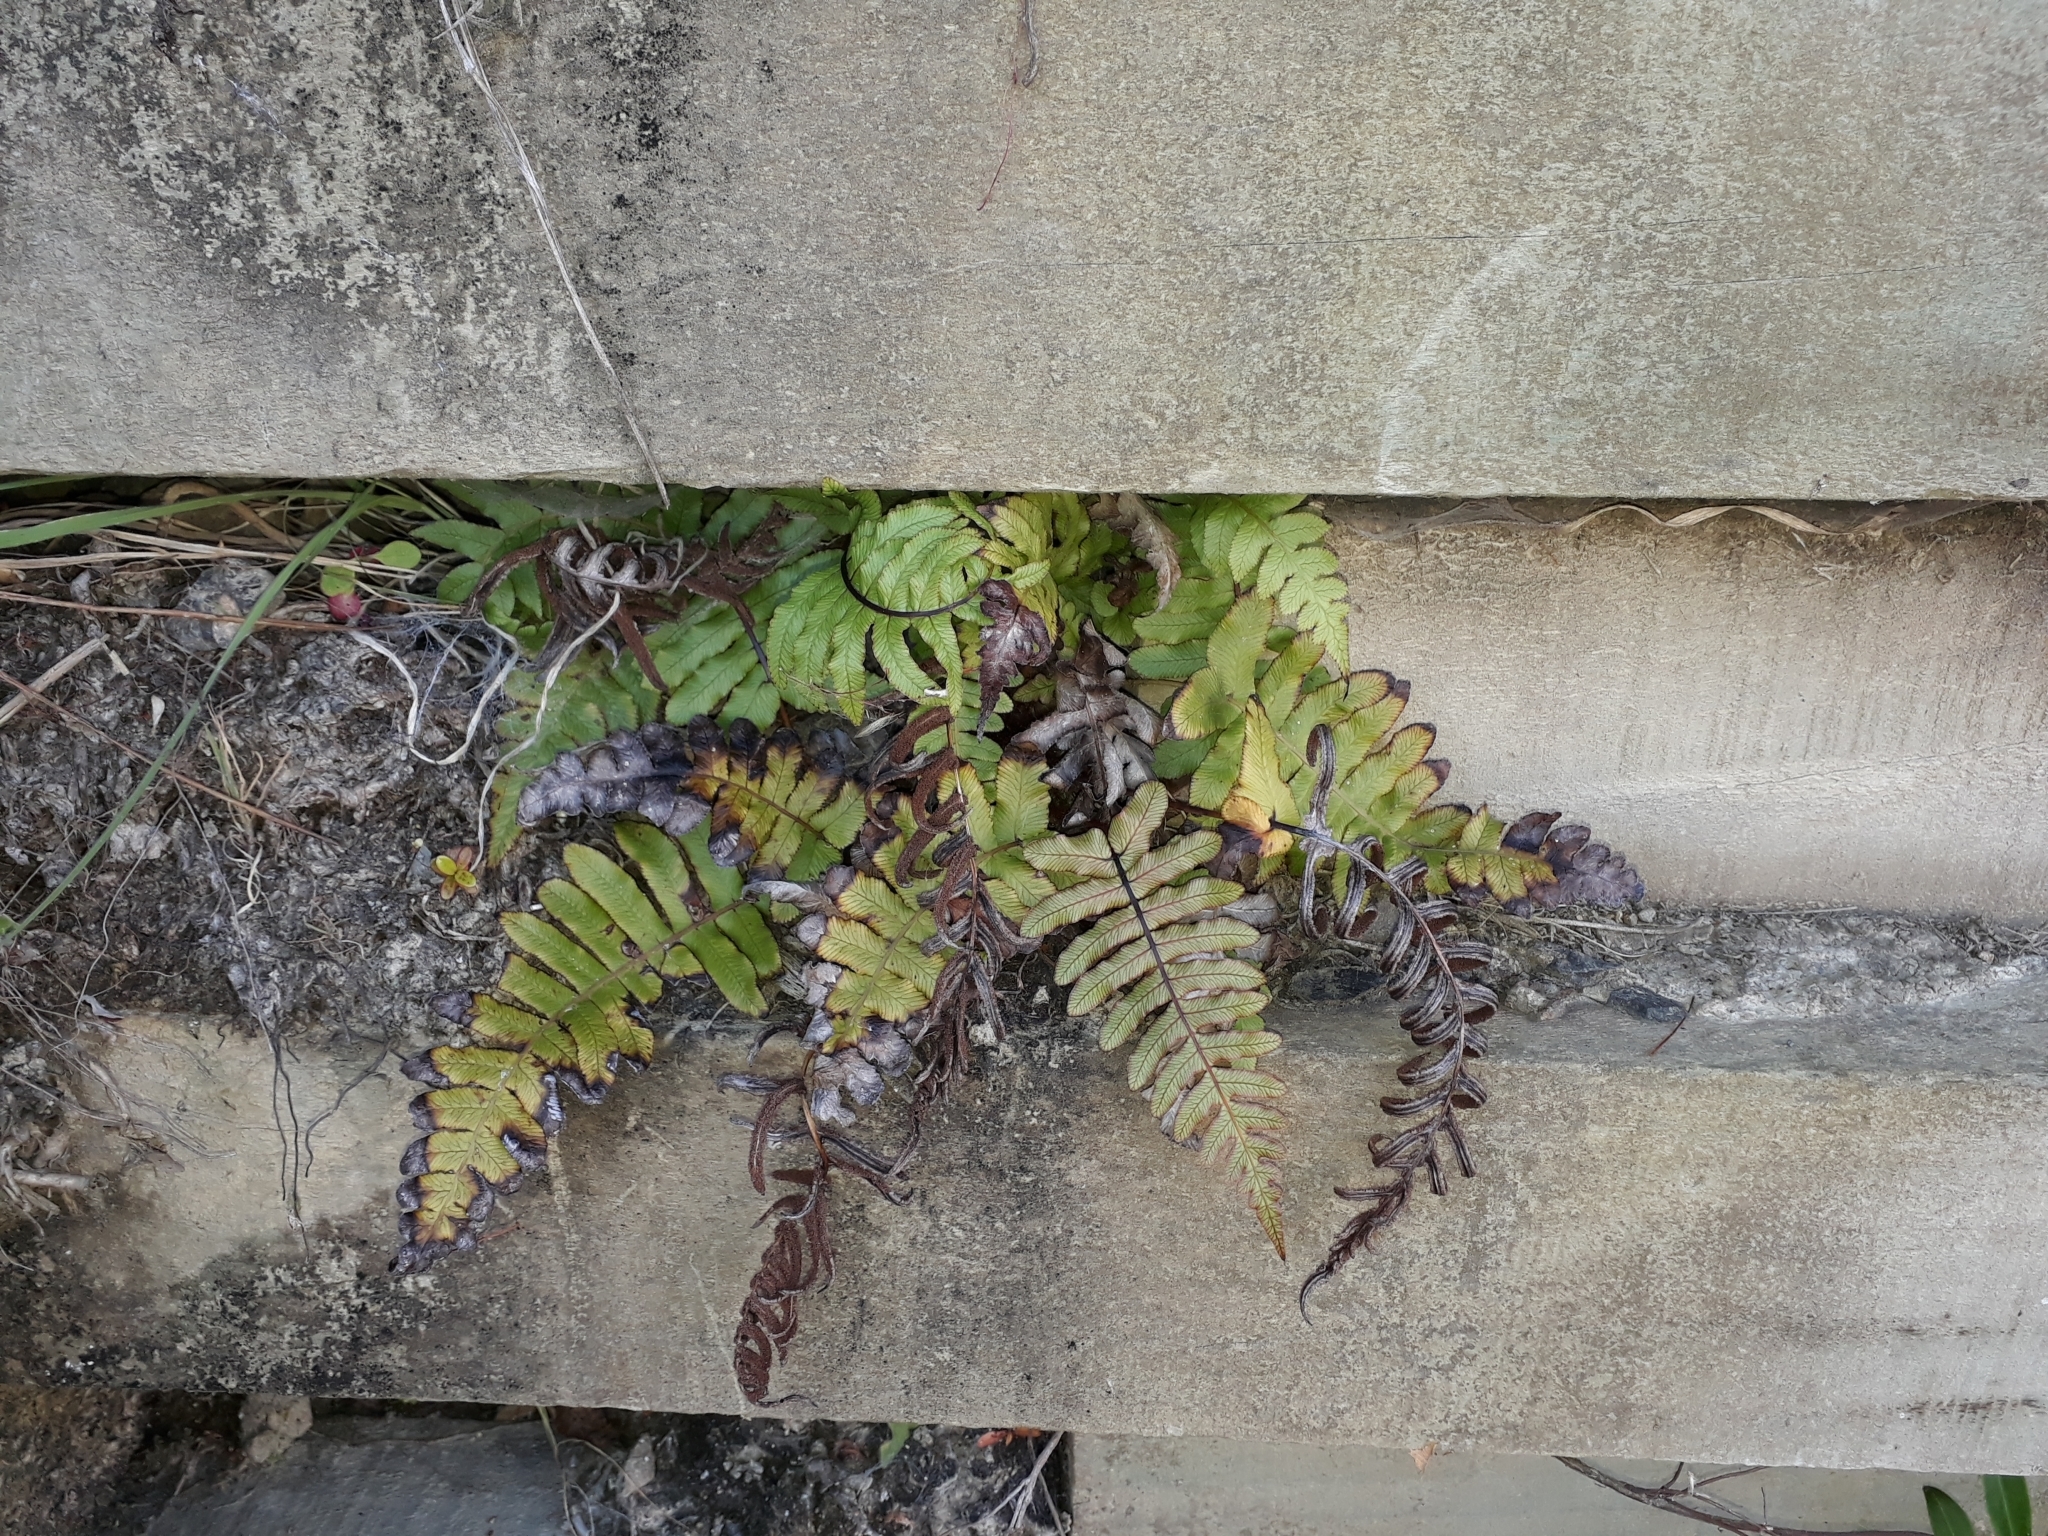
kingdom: Plantae
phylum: Tracheophyta
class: Polypodiopsida
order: Polypodiales
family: Blechnaceae
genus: Cranfillia
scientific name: Cranfillia deltoides
